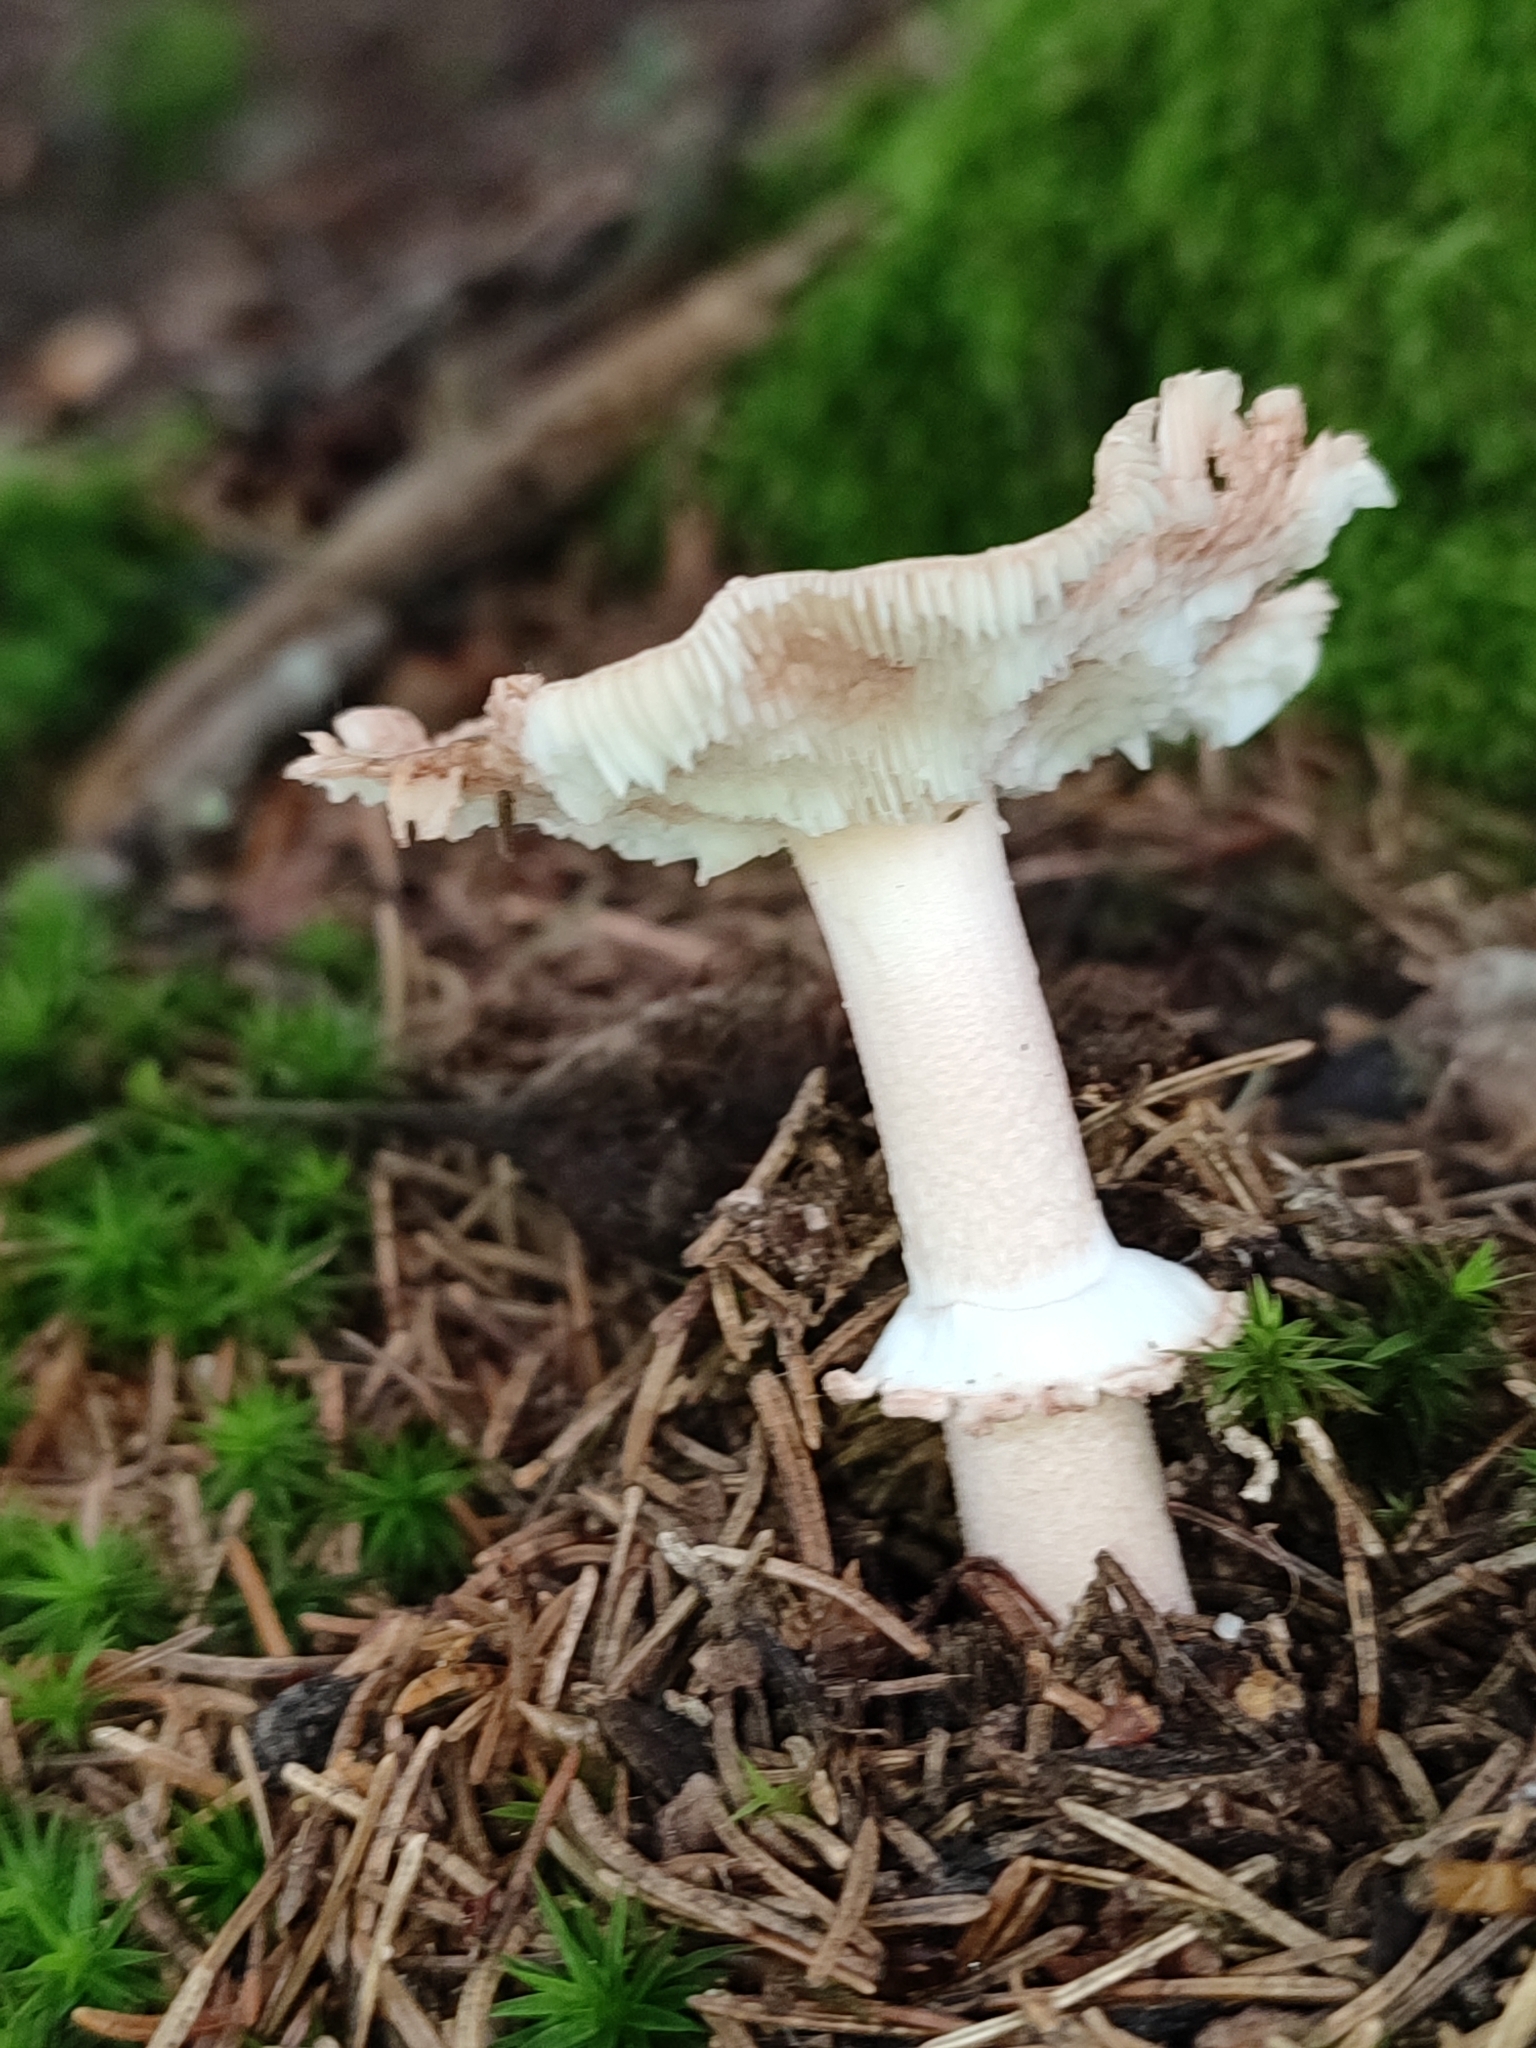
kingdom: Fungi
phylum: Basidiomycota
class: Agaricomycetes
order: Agaricales
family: Amanitaceae
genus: Amanita
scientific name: Amanita rubescens
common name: Blusher
